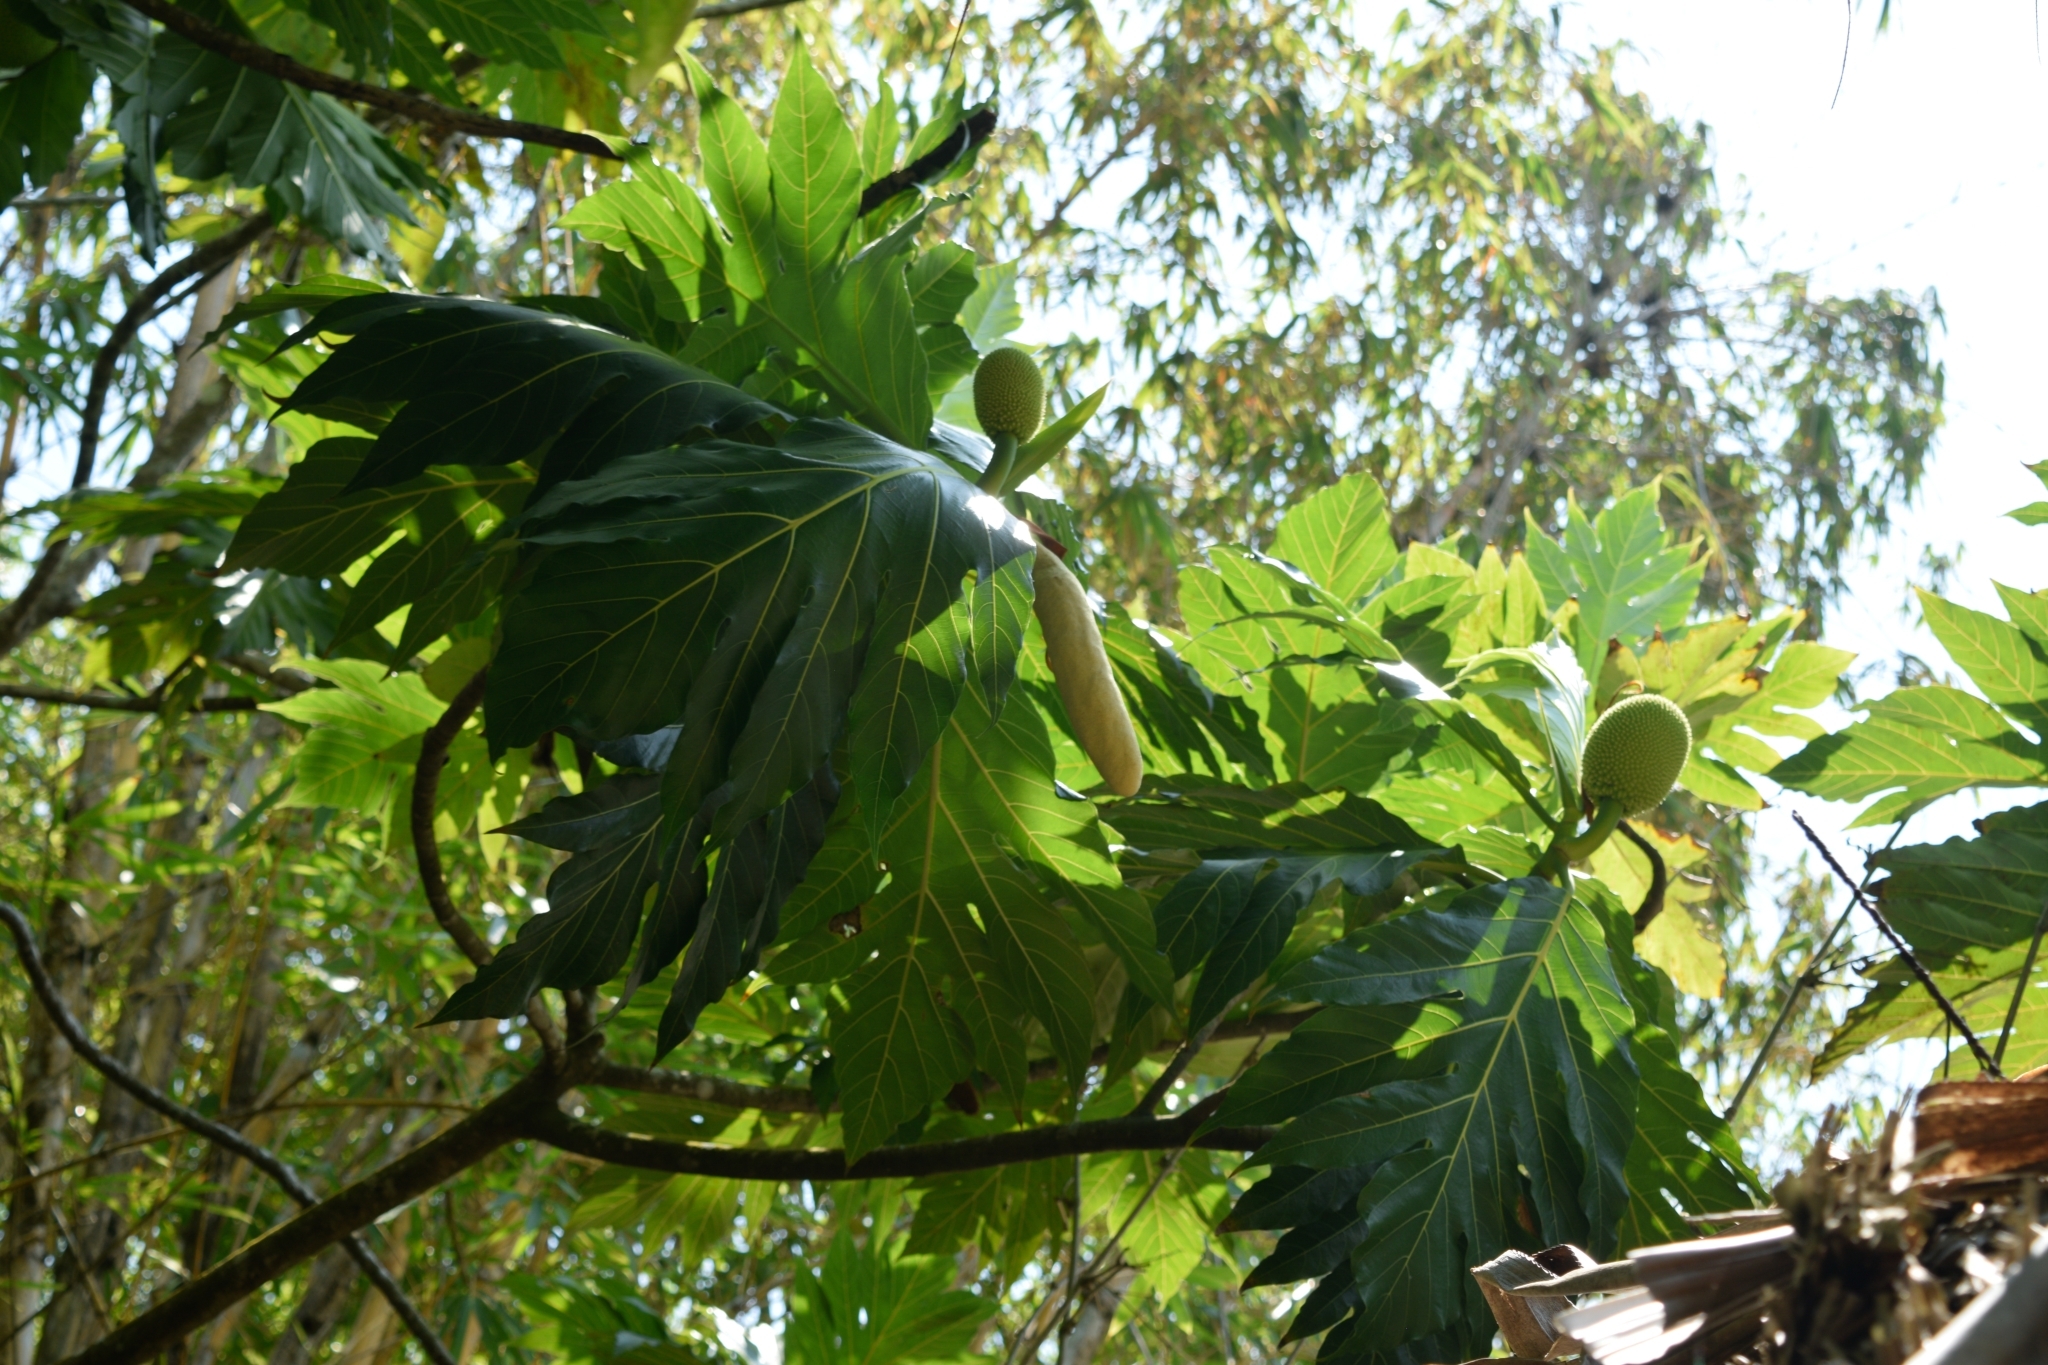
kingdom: Plantae
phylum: Tracheophyta
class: Magnoliopsida
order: Rosales
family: Moraceae
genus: Artocarpus
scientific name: Artocarpus altilis
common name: Breadfruit
